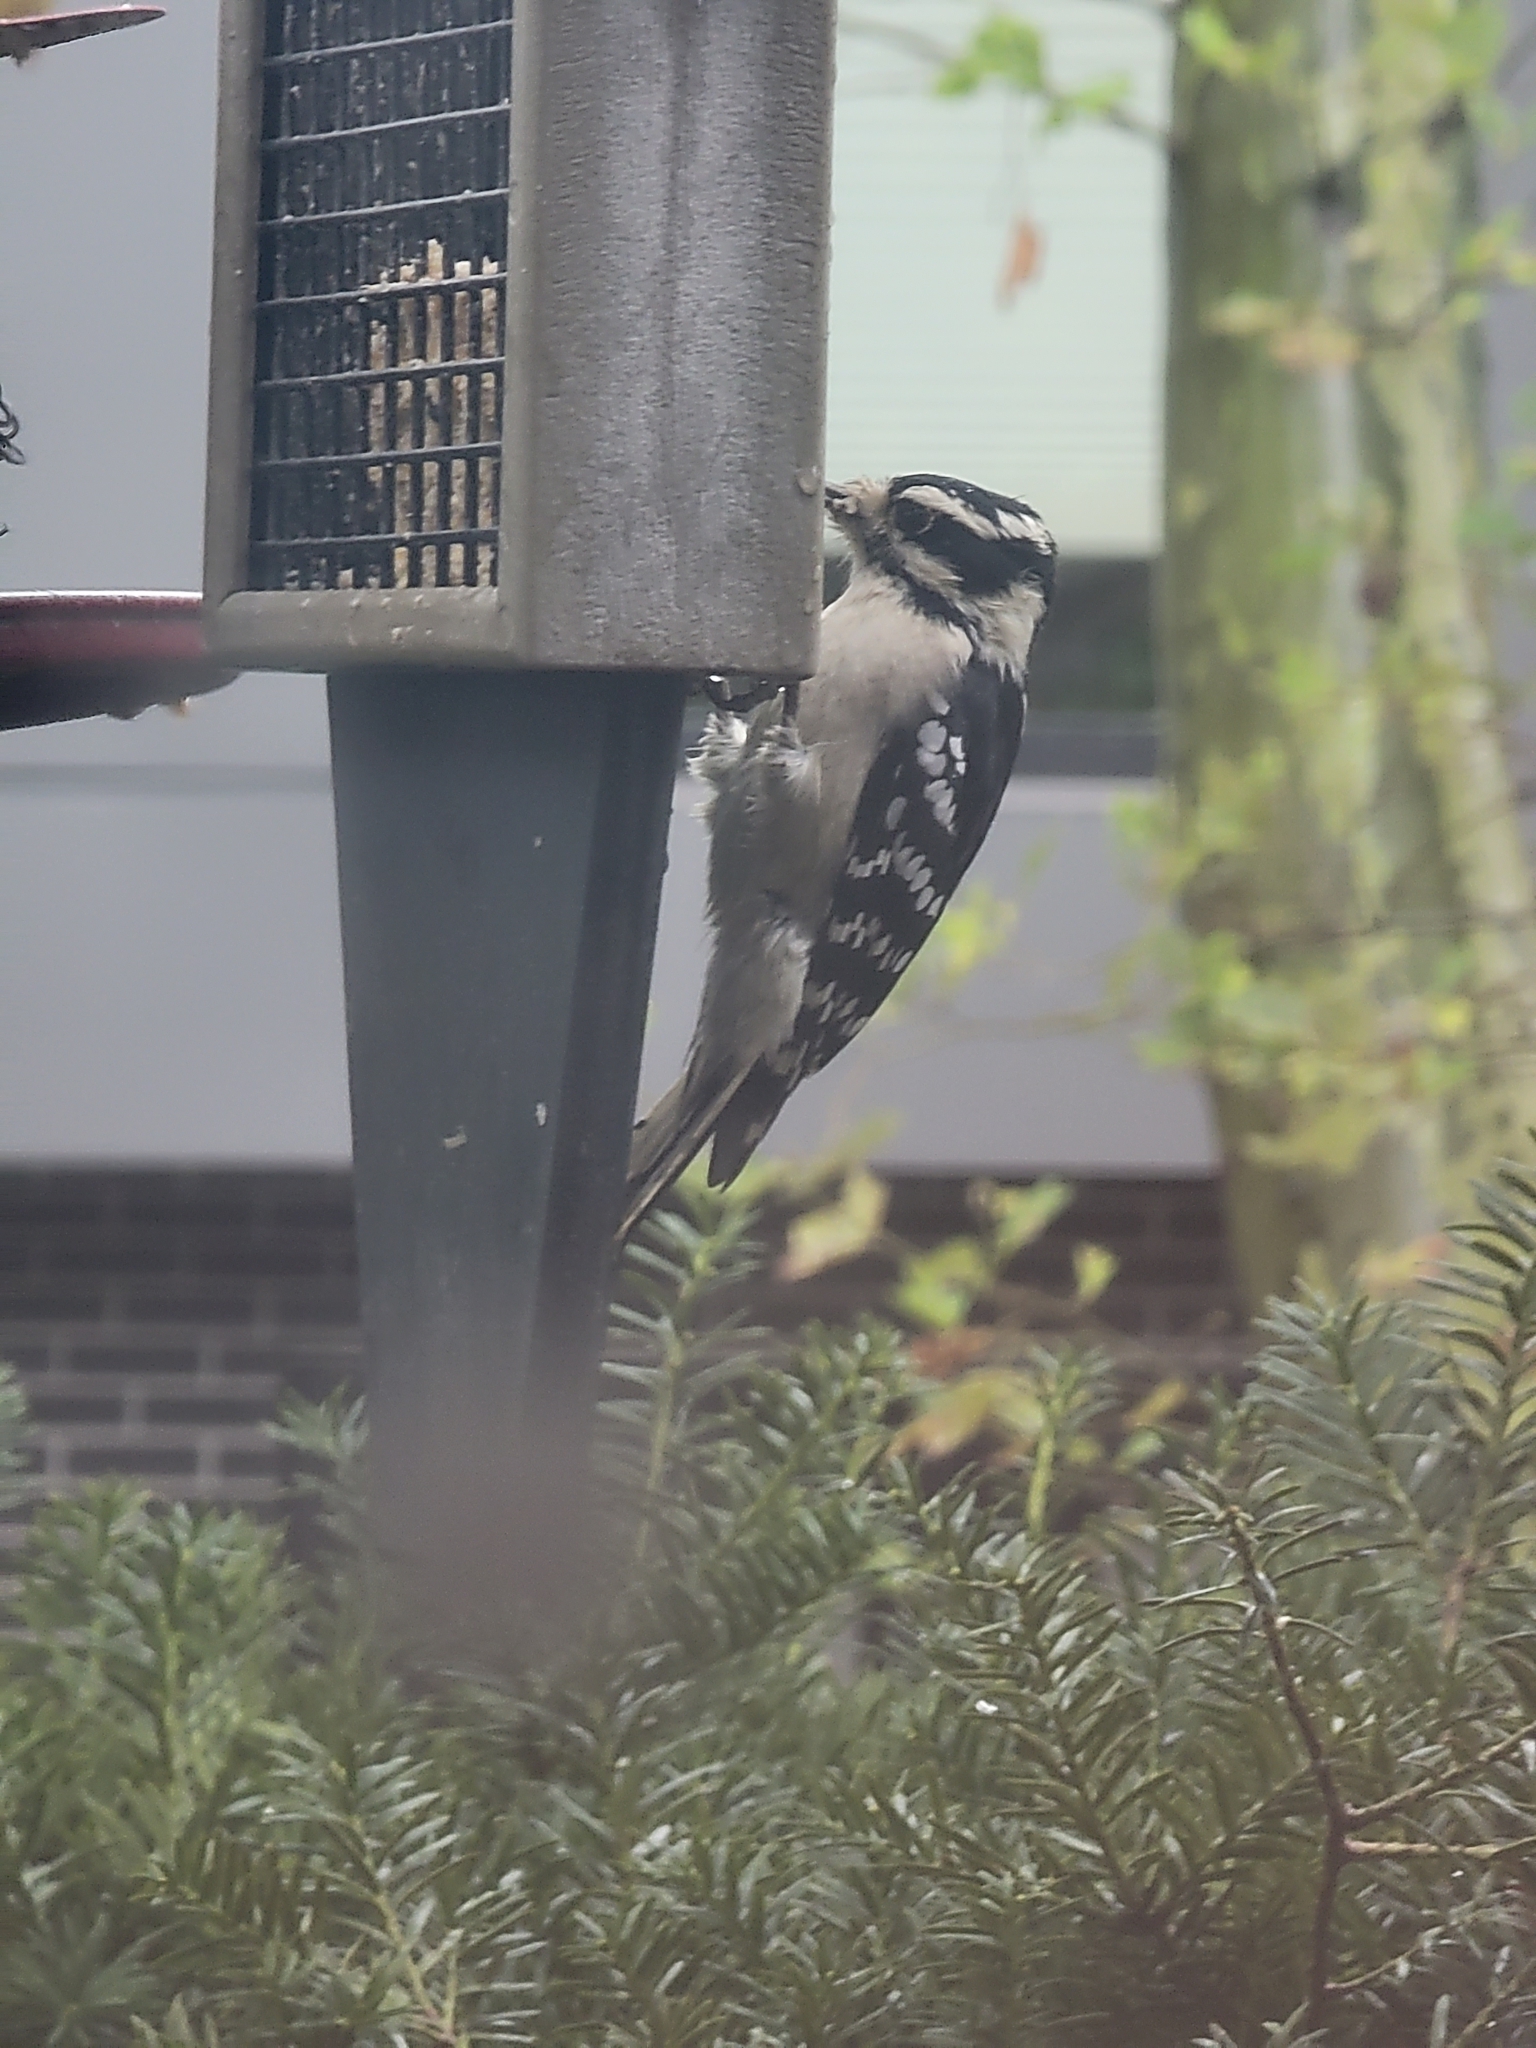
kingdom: Animalia
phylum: Chordata
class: Aves
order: Piciformes
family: Picidae
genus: Dryobates
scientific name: Dryobates pubescens
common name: Downy woodpecker
